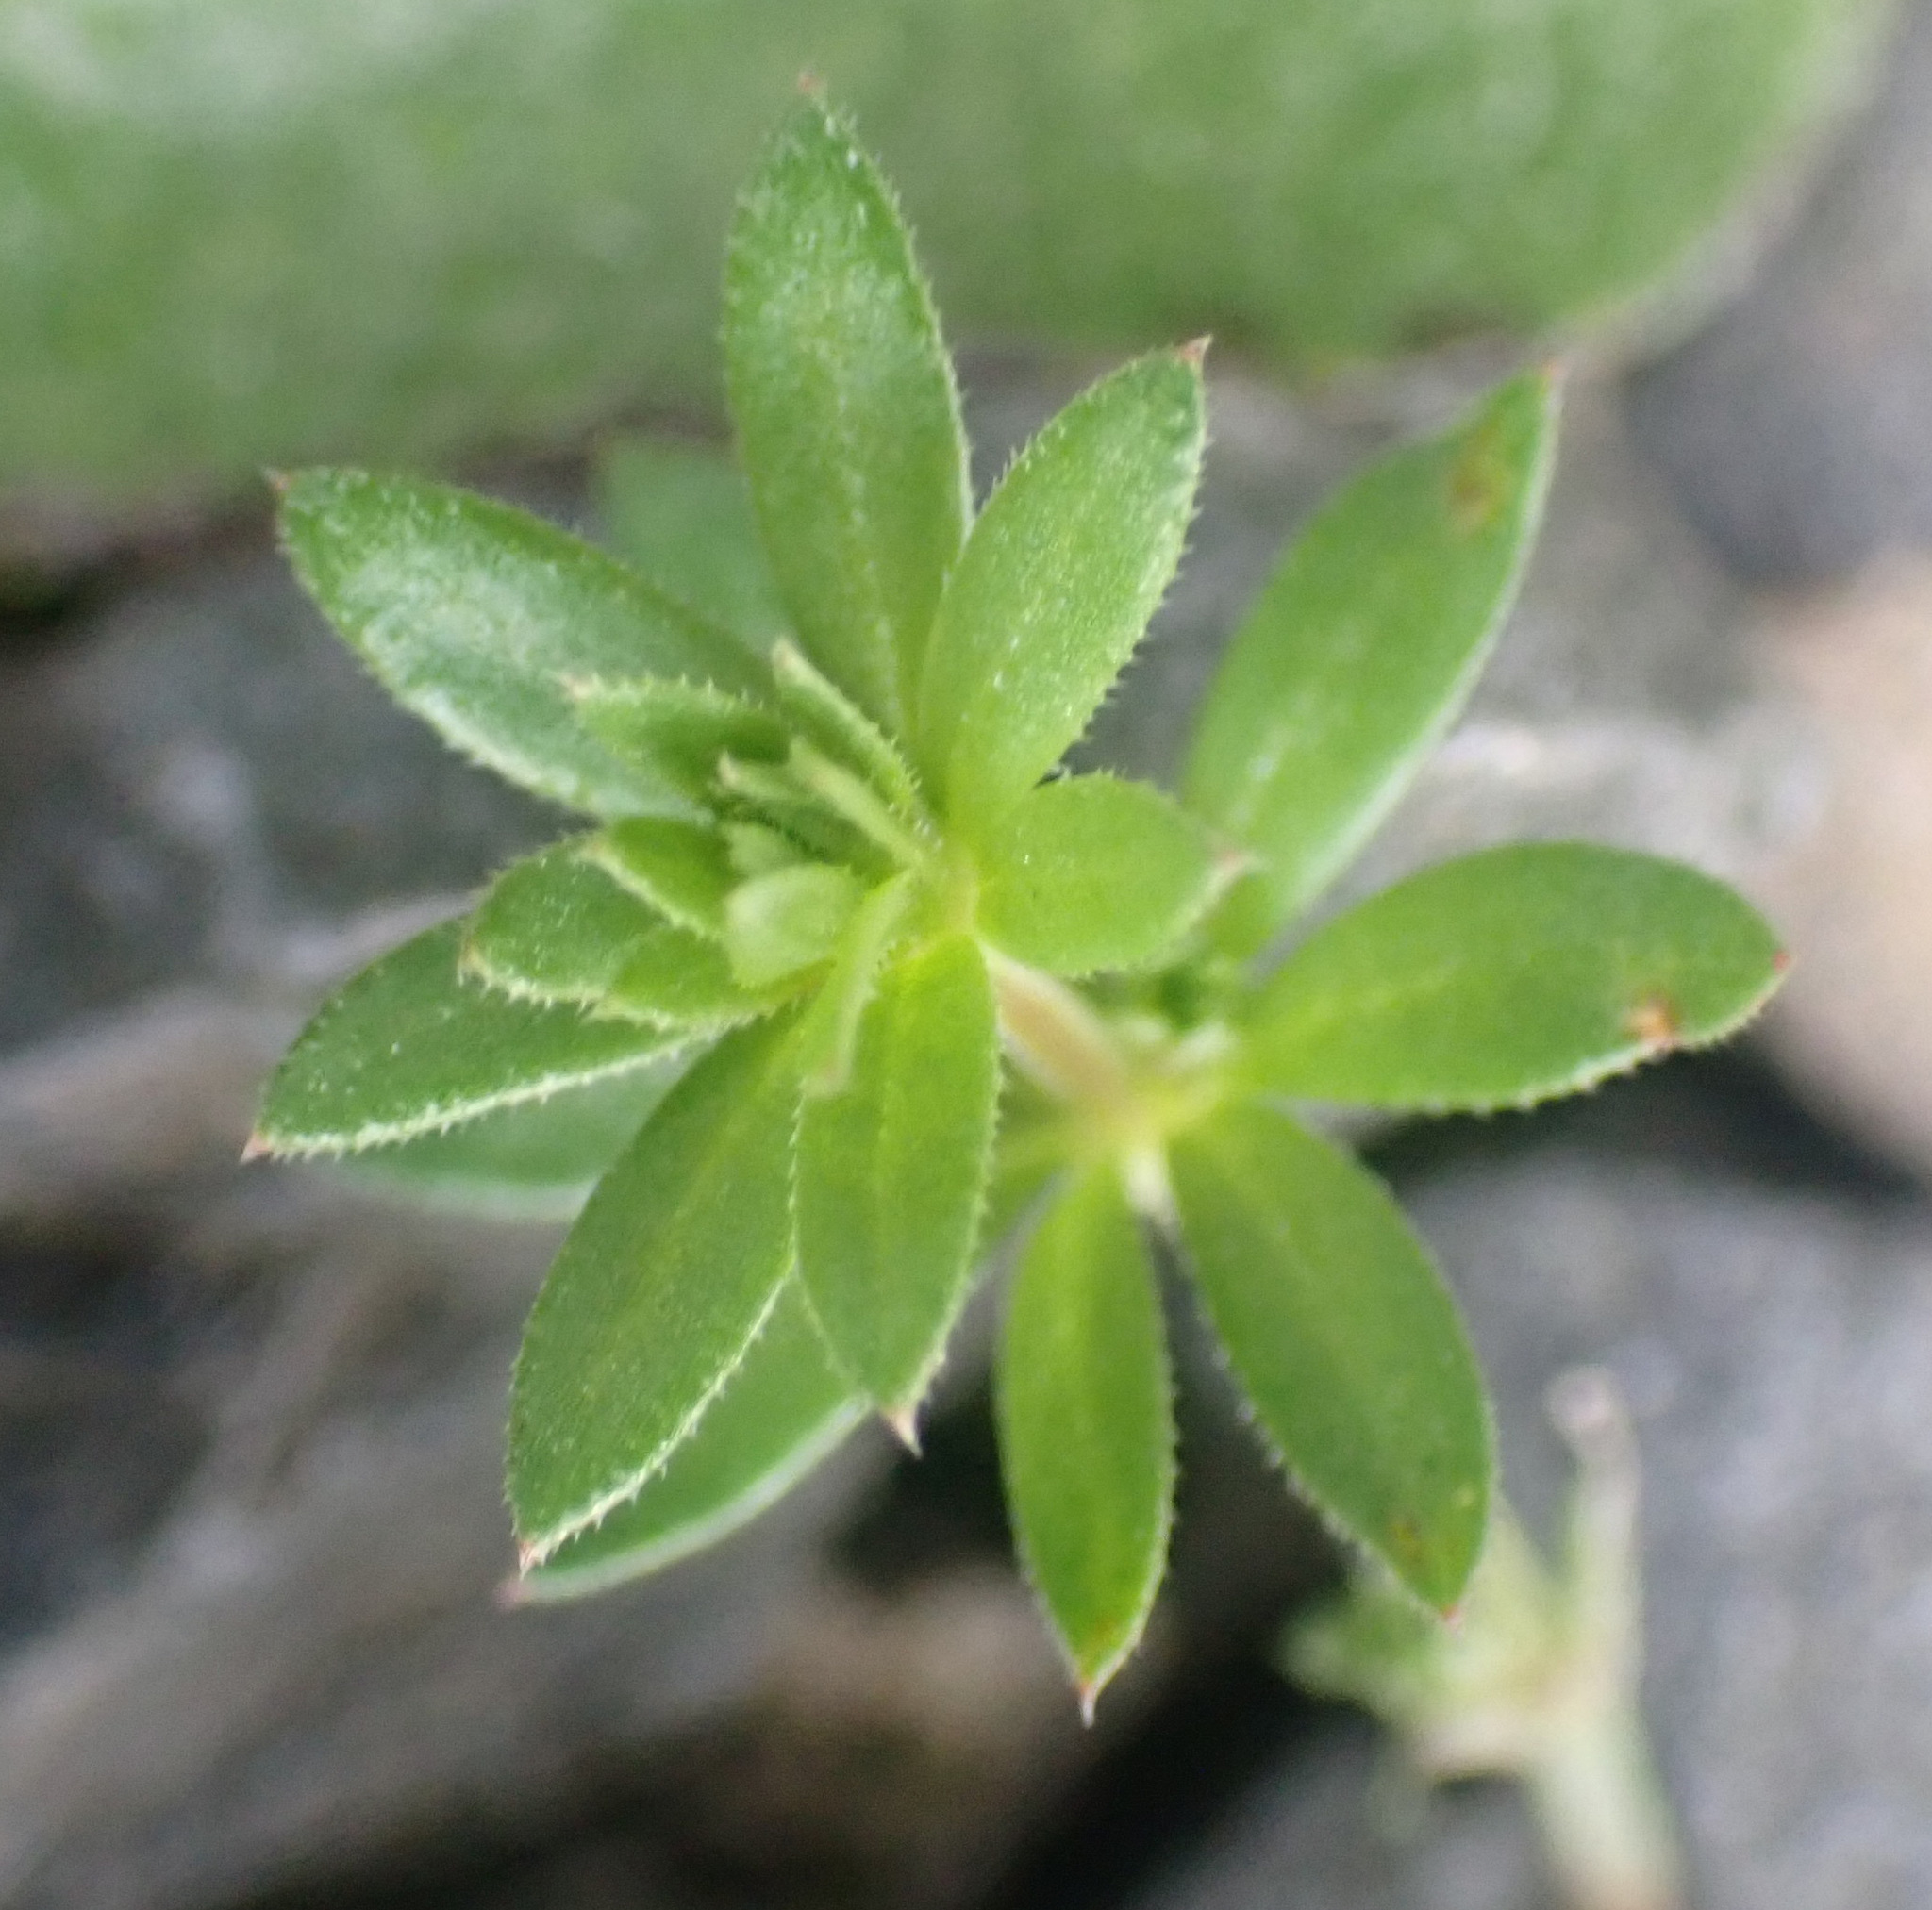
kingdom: Plantae
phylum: Tracheophyta
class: Magnoliopsida
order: Gentianales
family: Rubiaceae
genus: Sherardia
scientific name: Sherardia arvensis
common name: Field madder
